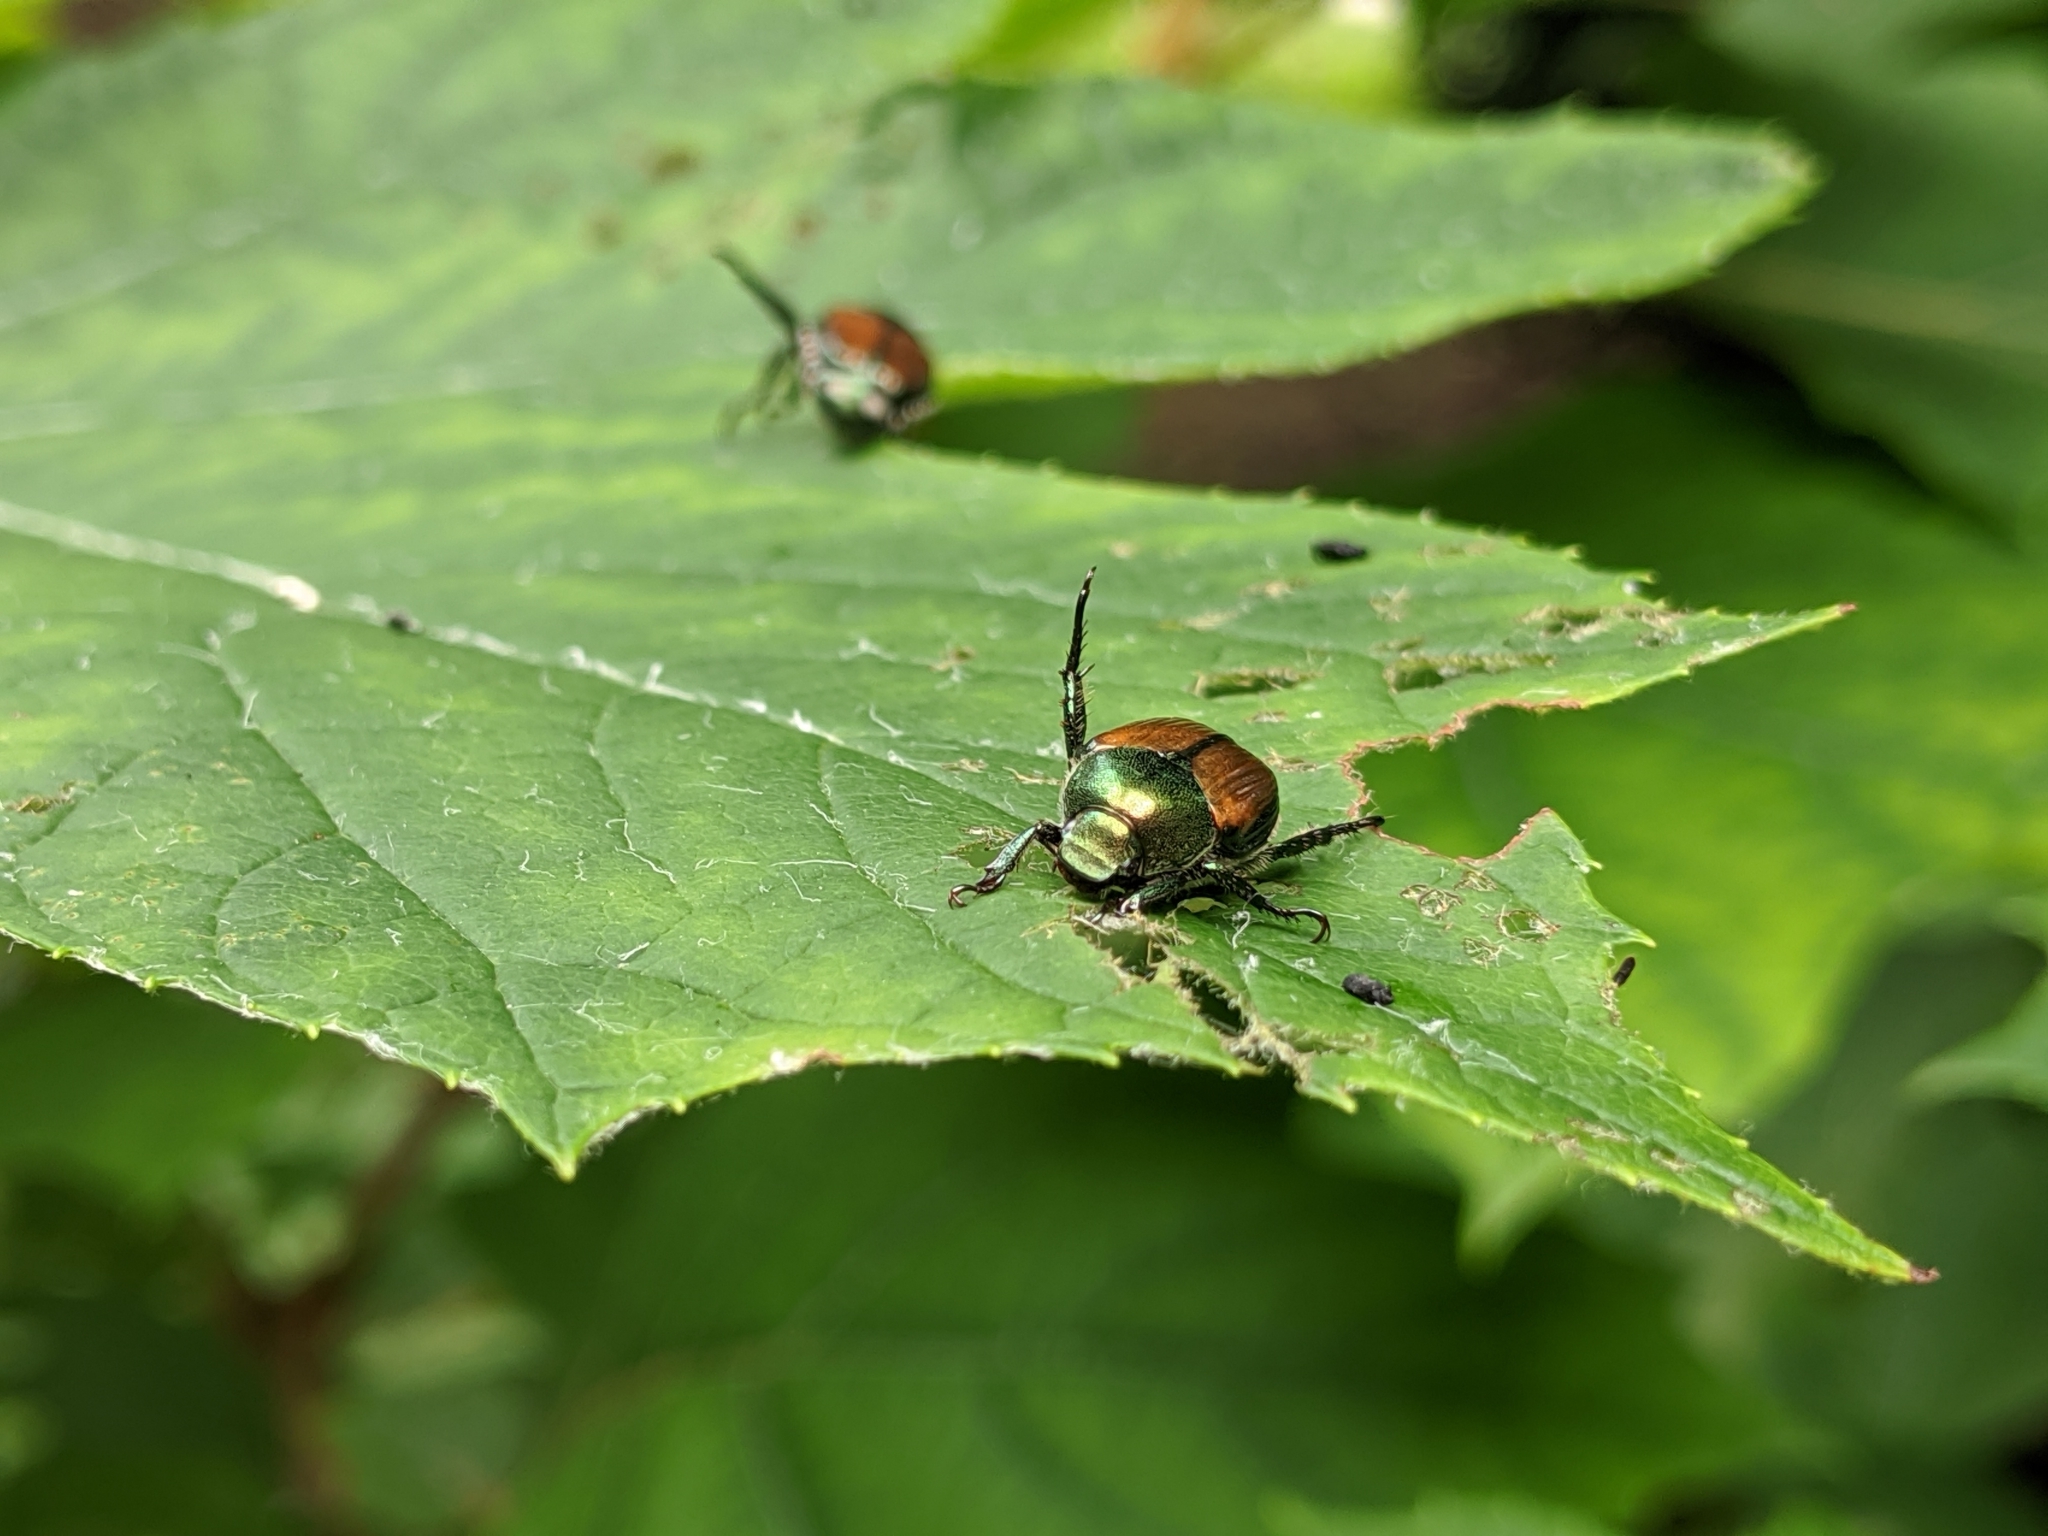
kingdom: Animalia
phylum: Arthropoda
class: Insecta
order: Coleoptera
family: Scarabaeidae
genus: Popillia
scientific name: Popillia japonica
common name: Japanese beetle
